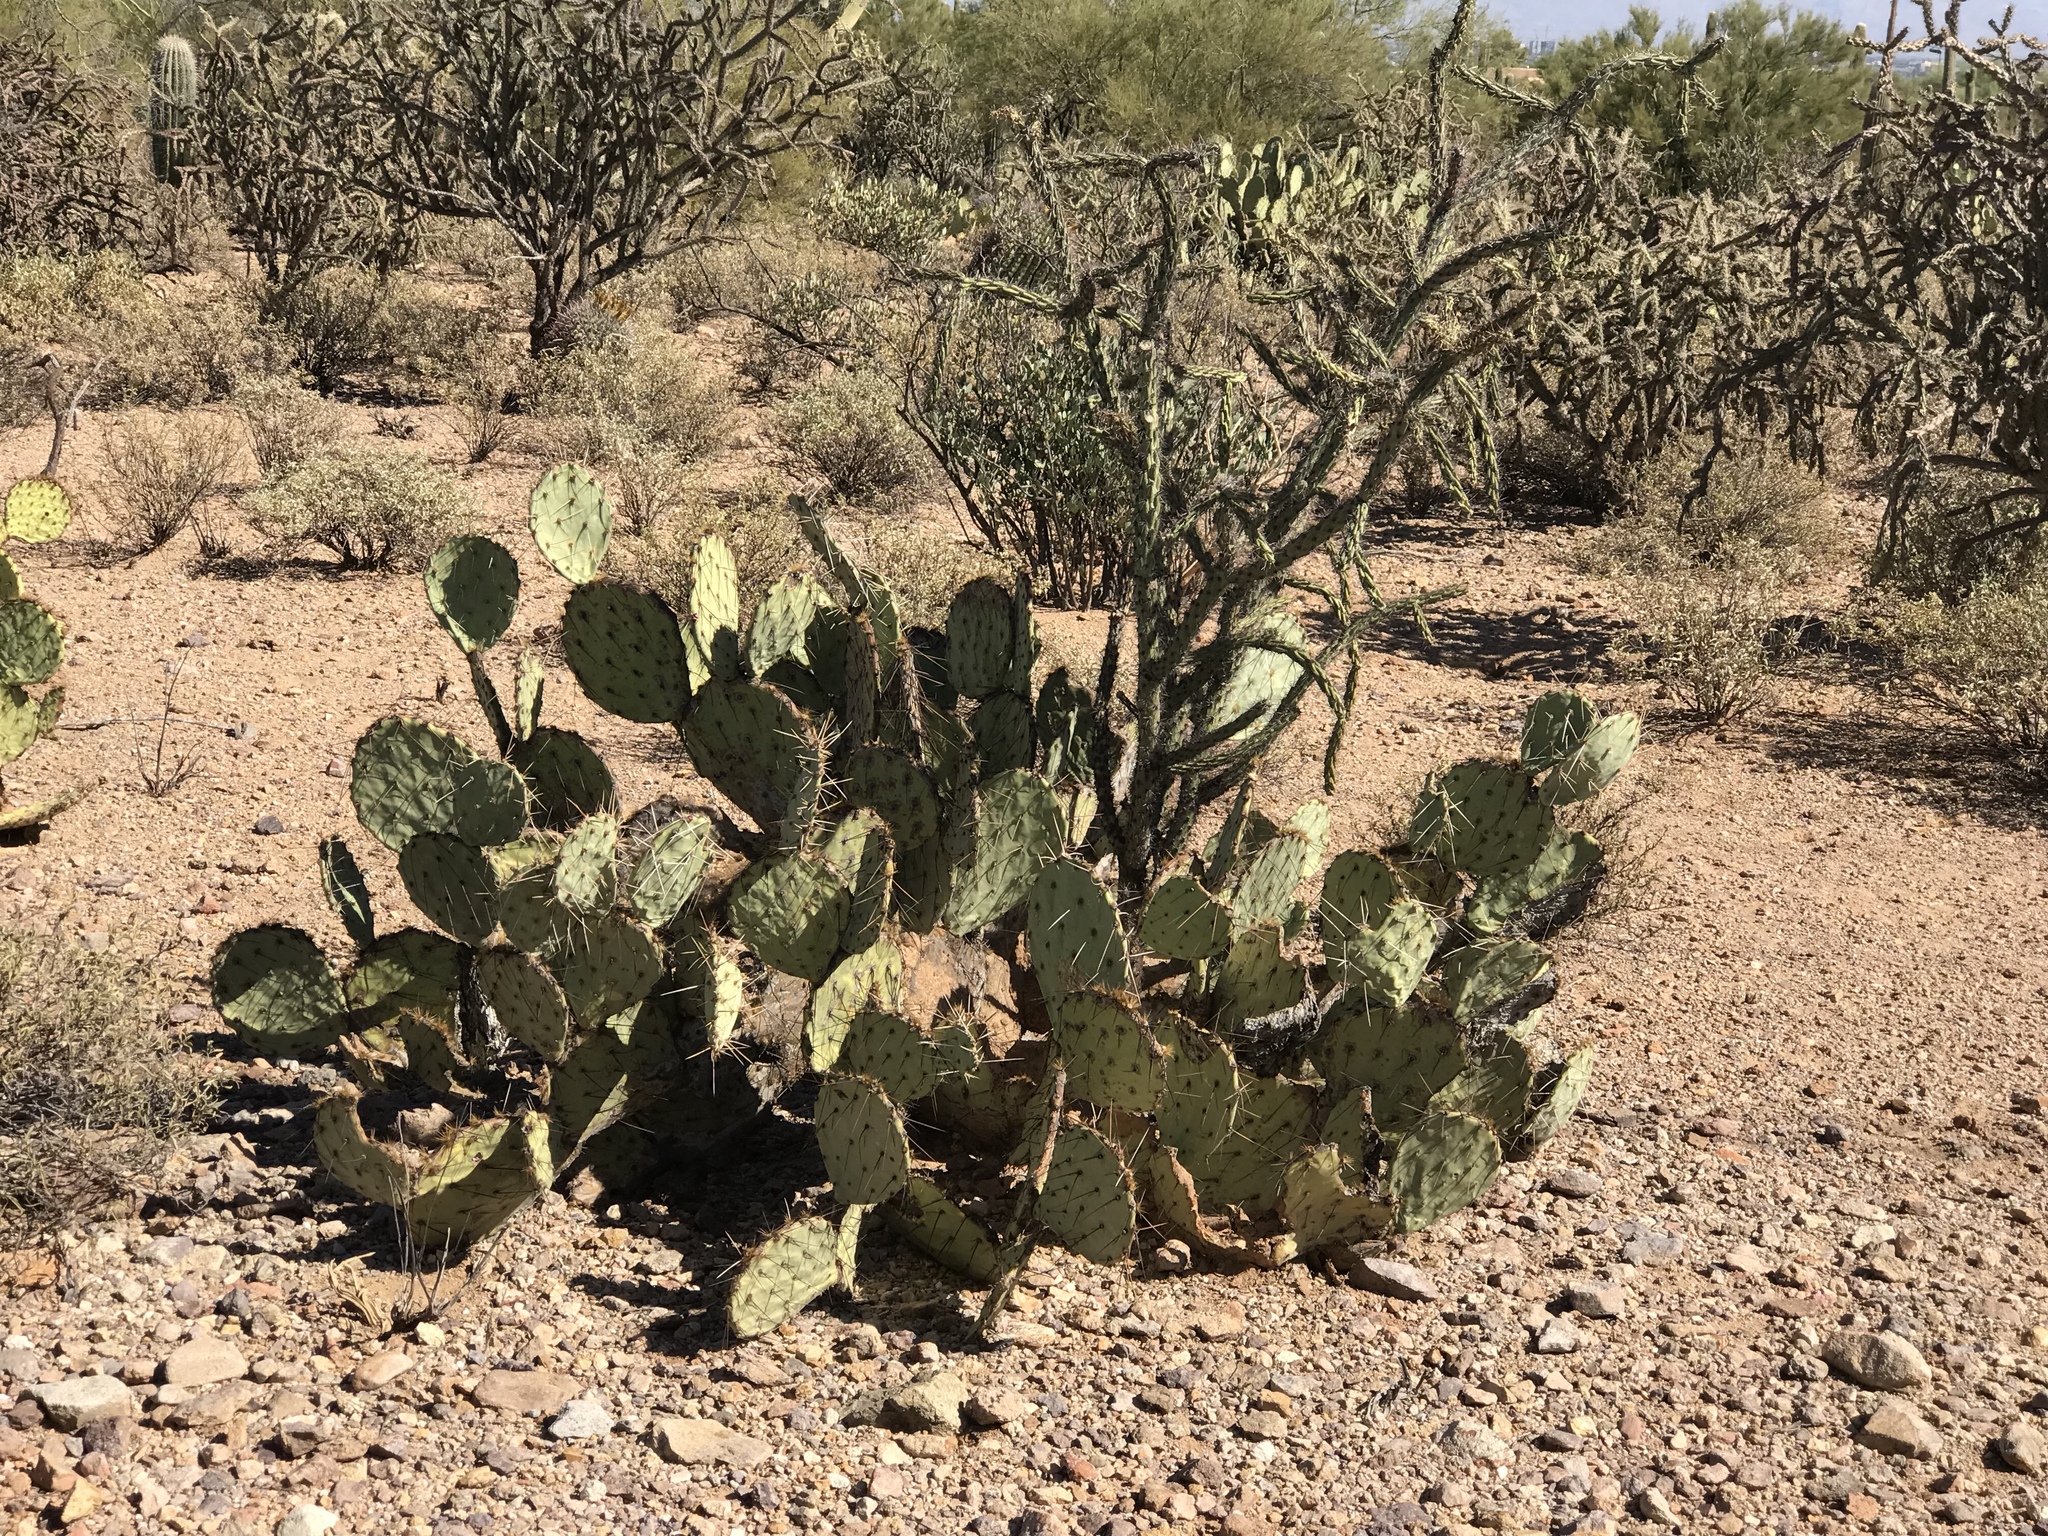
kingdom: Plantae
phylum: Tracheophyta
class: Magnoliopsida
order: Caryophyllales
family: Cactaceae
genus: Opuntia
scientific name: Opuntia phaeacantha
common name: New mexico prickly-pear
